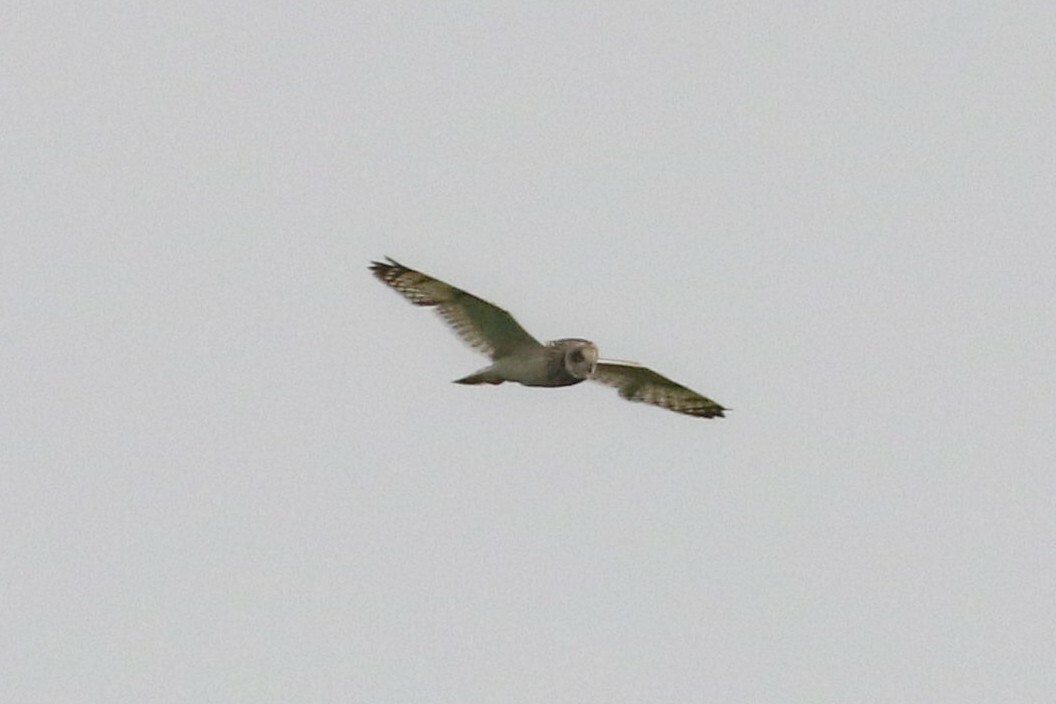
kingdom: Animalia
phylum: Chordata
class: Aves
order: Strigiformes
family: Strigidae
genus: Asio
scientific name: Asio flammeus
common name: Short-eared owl
